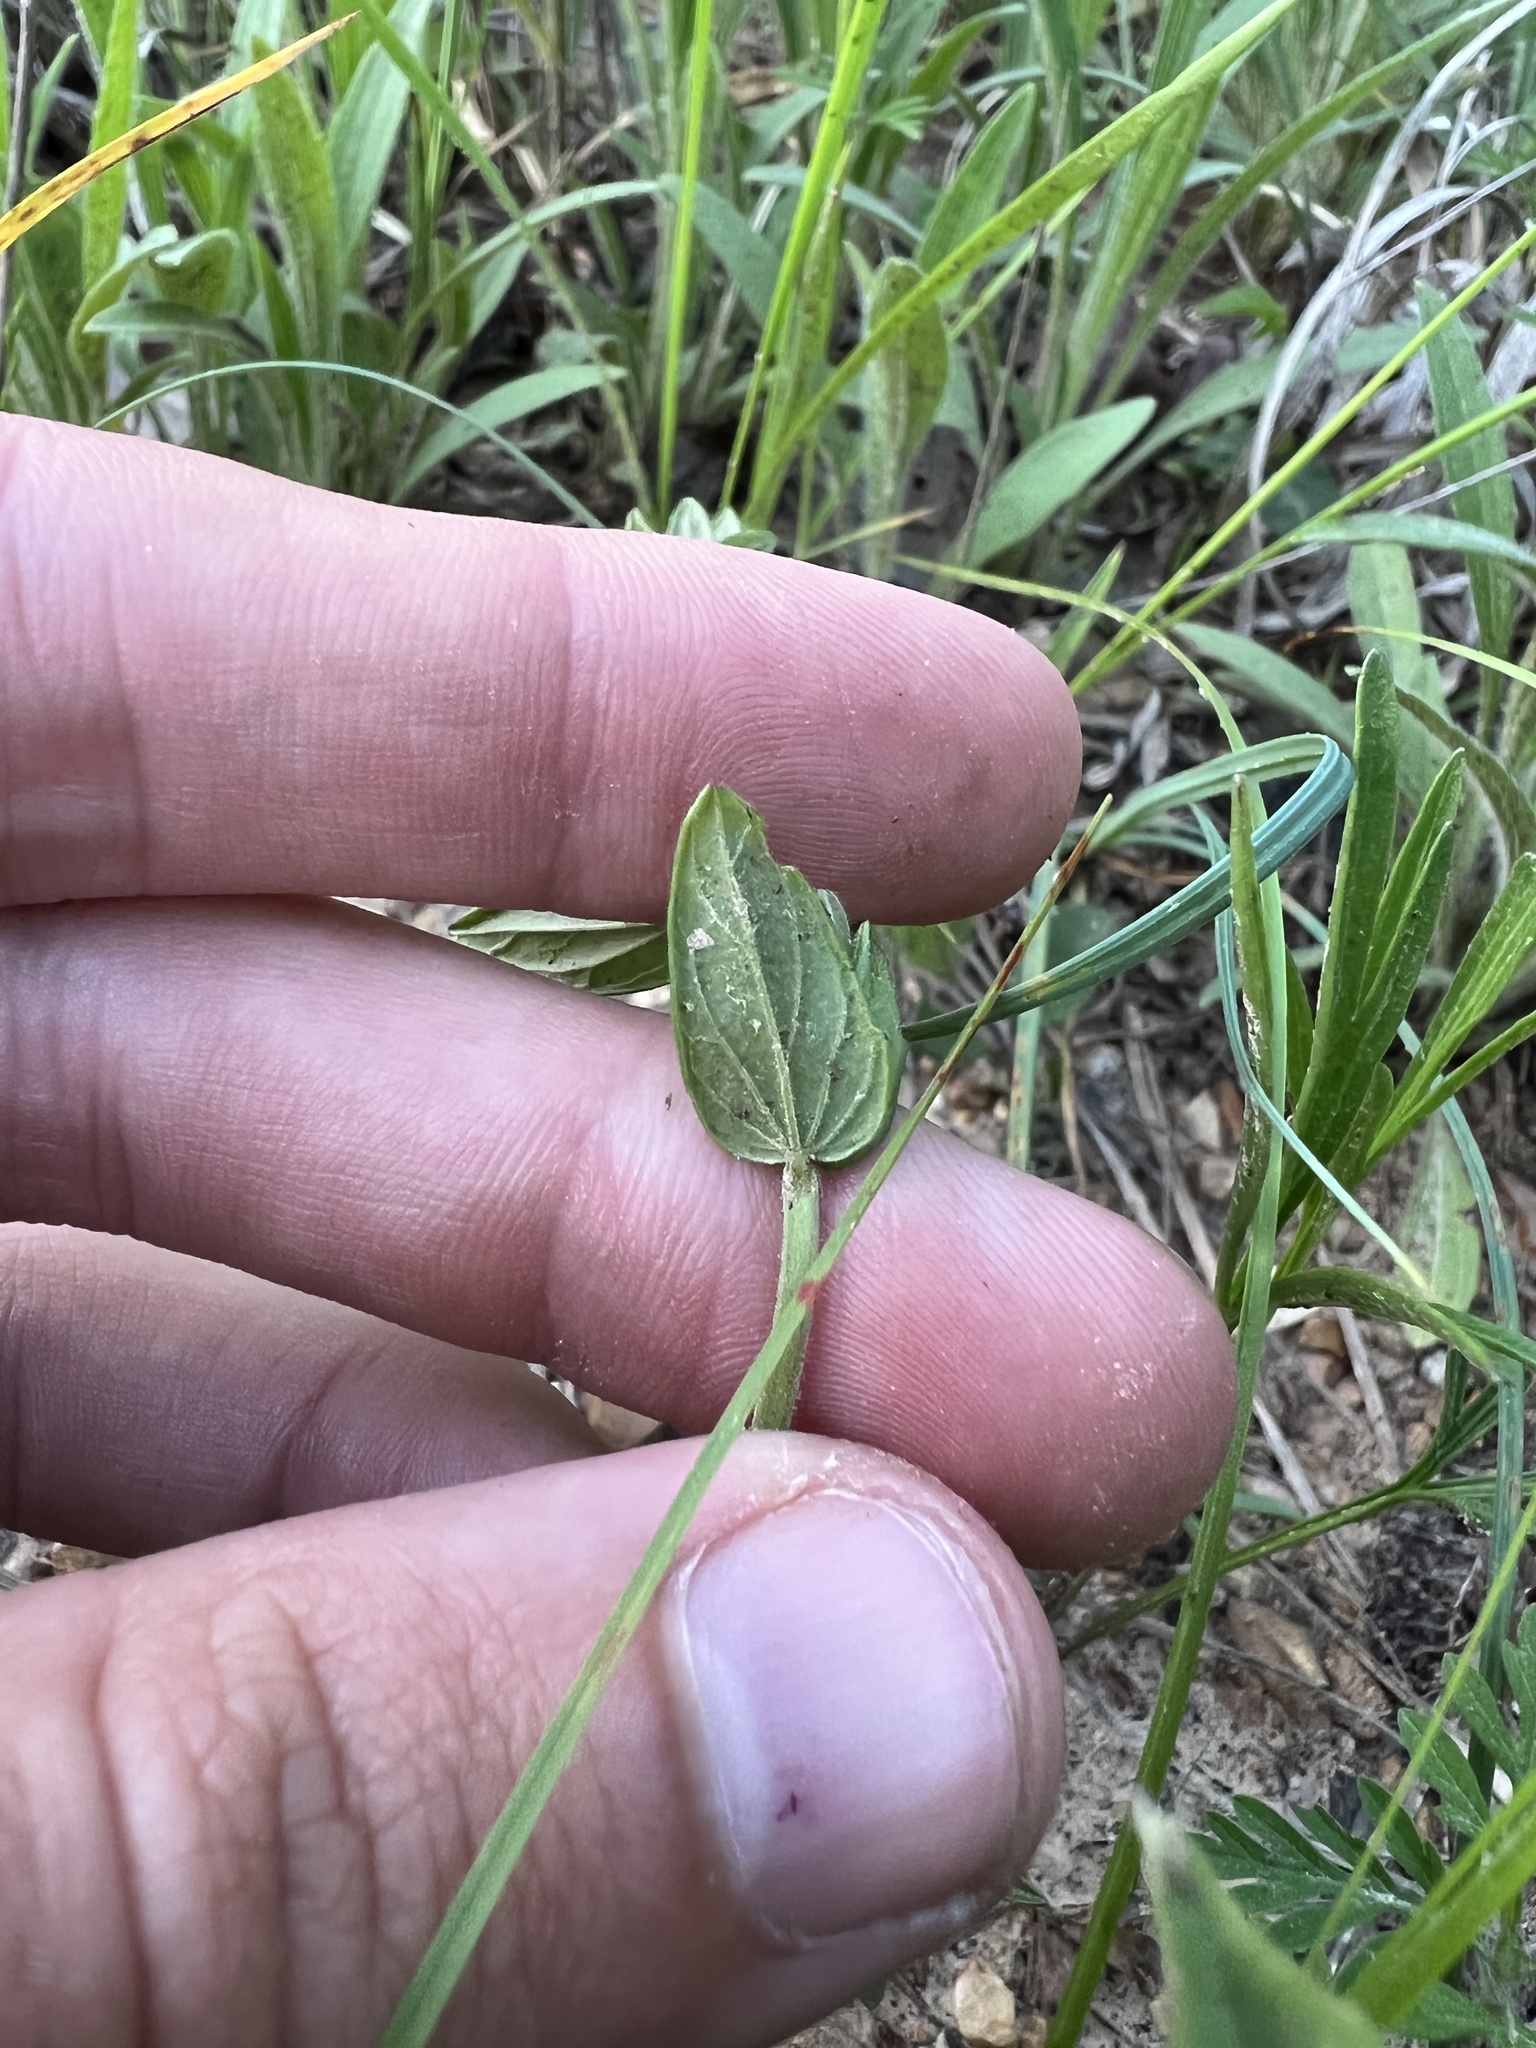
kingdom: Plantae
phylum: Tracheophyta
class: Magnoliopsida
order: Lamiales
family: Lamiaceae
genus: Scutellaria
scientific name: Scutellaria parvula
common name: Little scullcap
